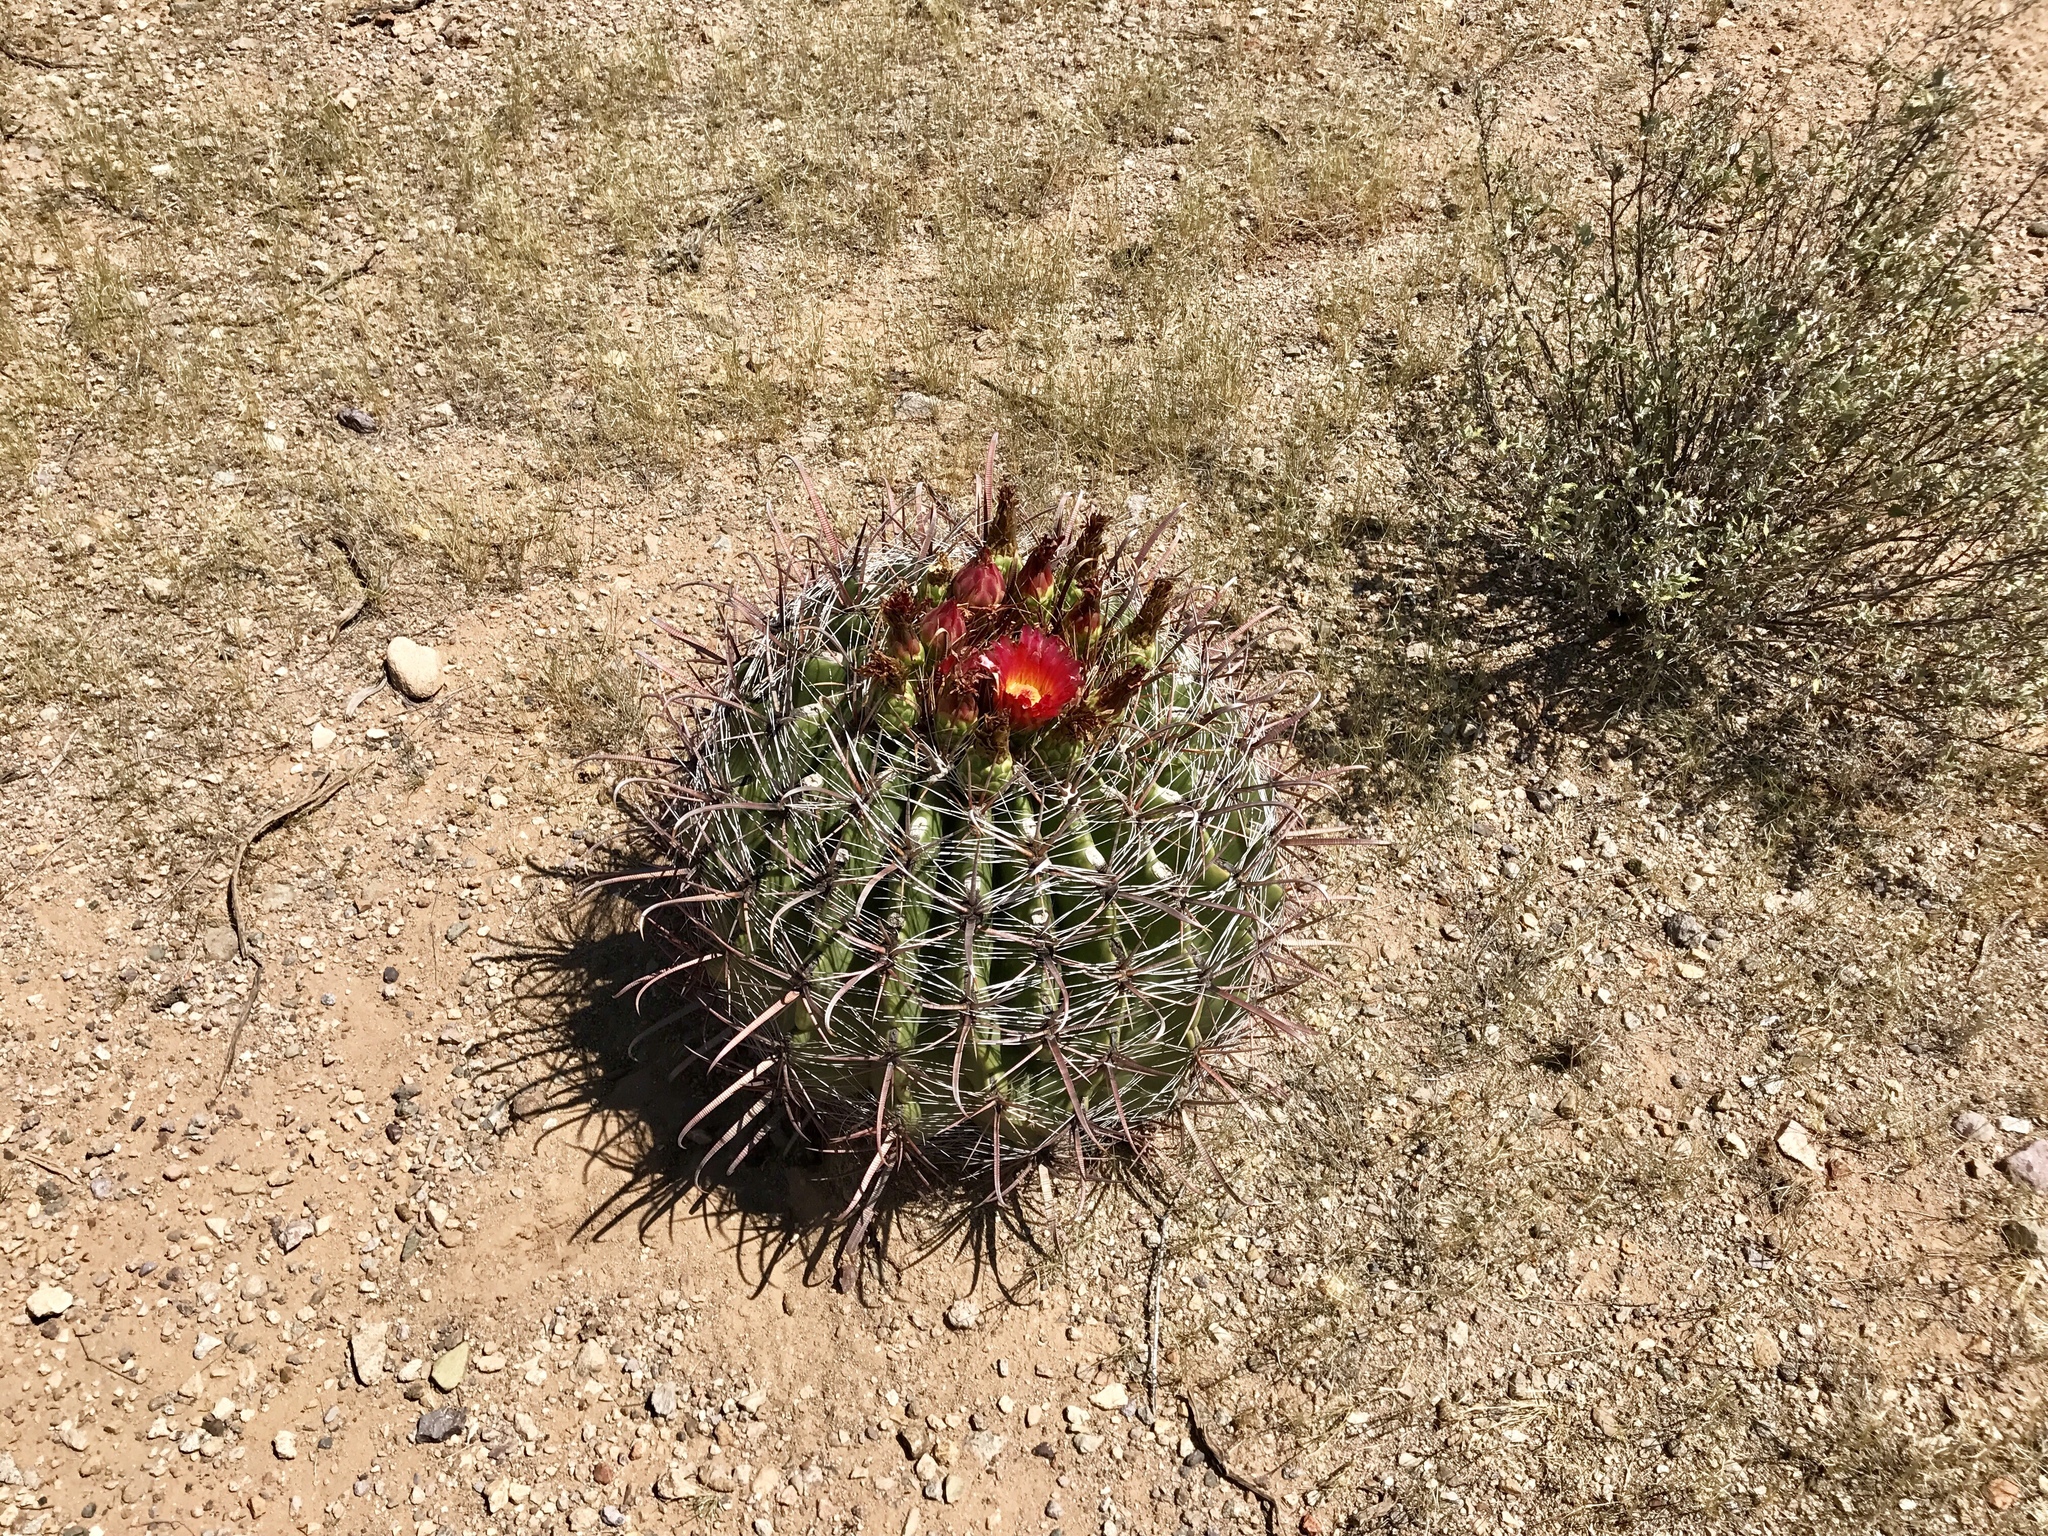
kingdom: Plantae
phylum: Tracheophyta
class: Magnoliopsida
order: Caryophyllales
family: Cactaceae
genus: Ferocactus
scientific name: Ferocactus wislizeni
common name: Candy barrel cactus
